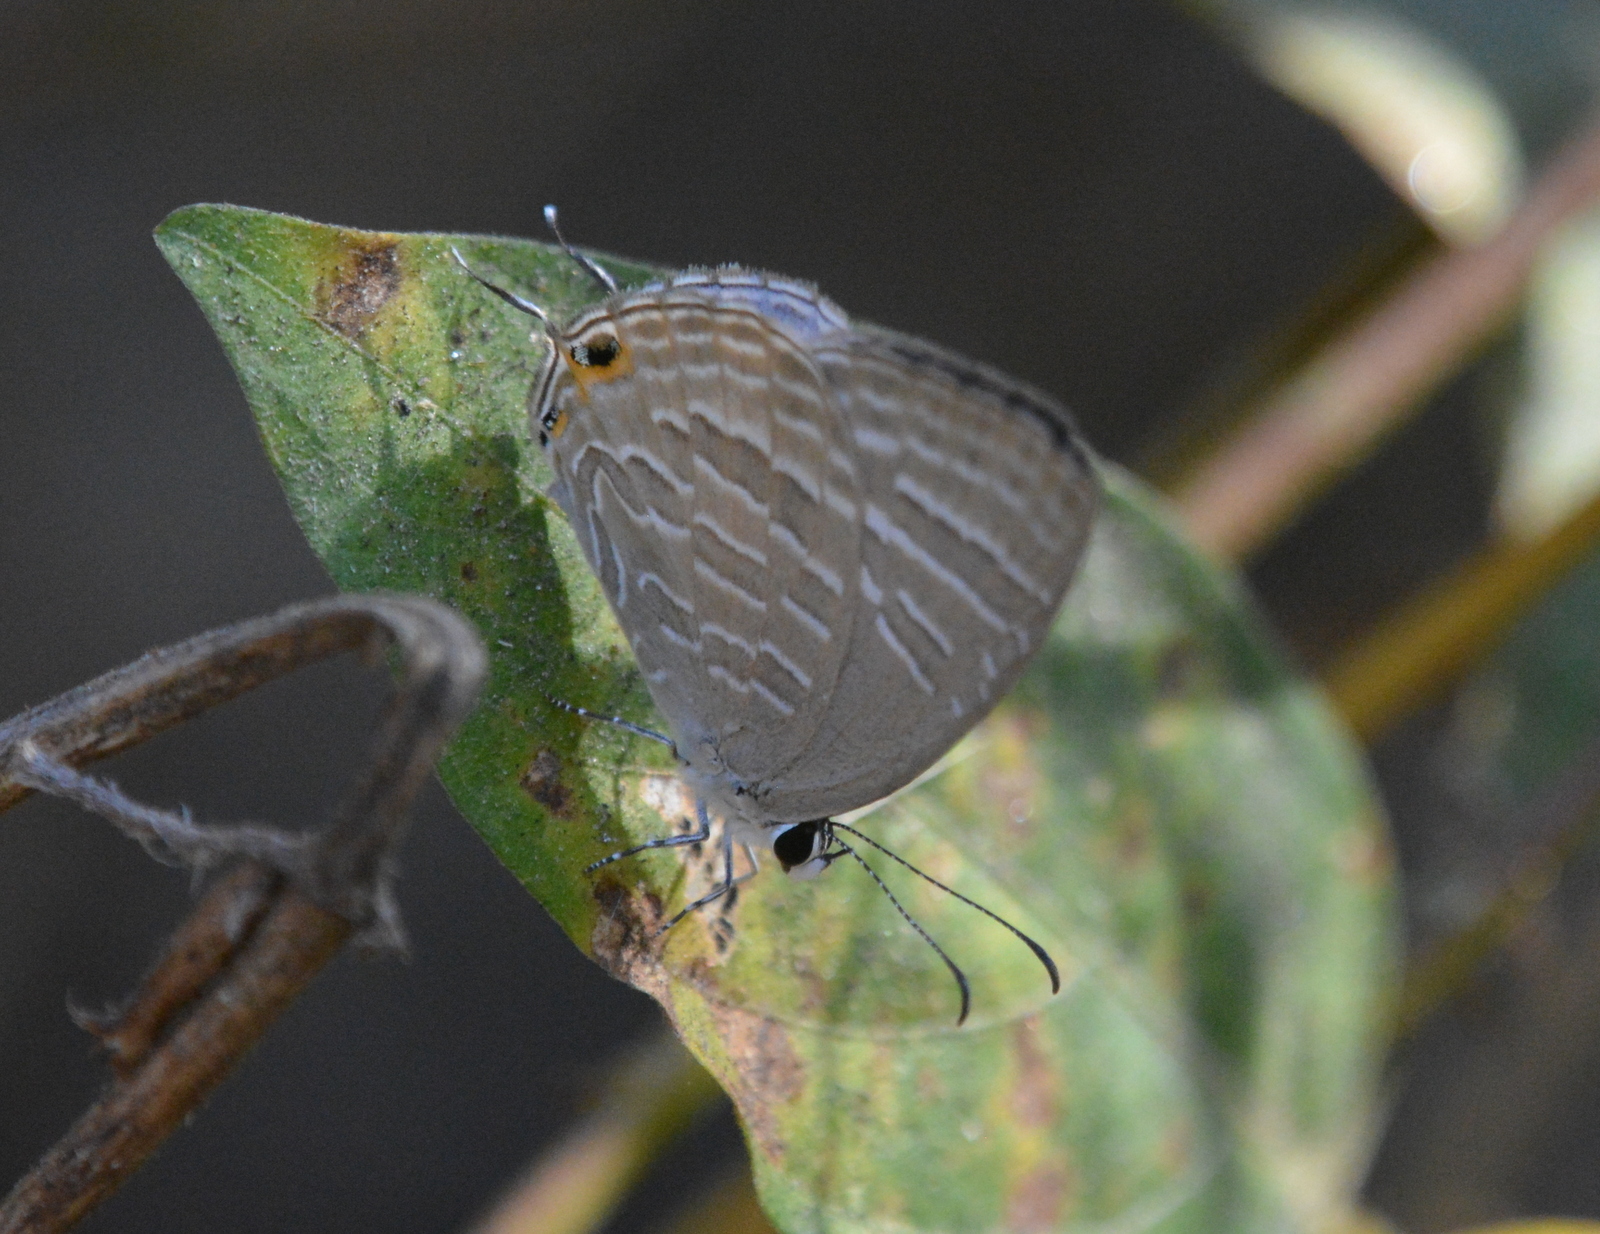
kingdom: Animalia
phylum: Arthropoda
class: Insecta
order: Lepidoptera
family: Lycaenidae
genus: Jamides
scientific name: Jamides celeno
